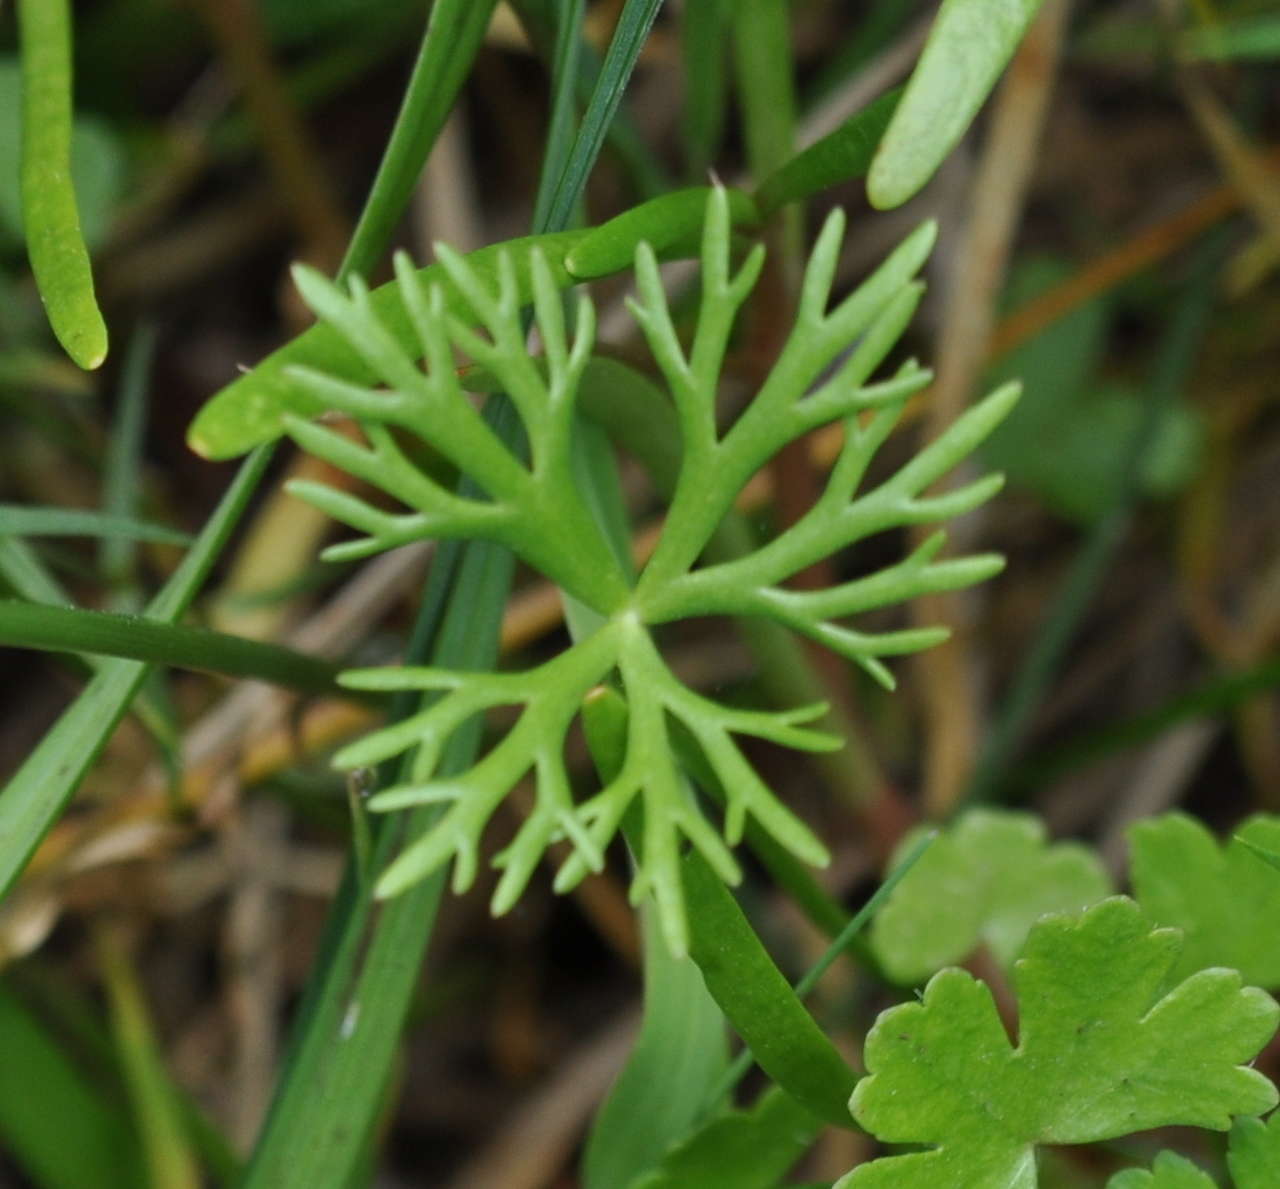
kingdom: Plantae
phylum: Tracheophyta
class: Magnoliopsida
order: Ranunculales
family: Ranunculaceae
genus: Ranunculus
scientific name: Ranunculus inundatus
